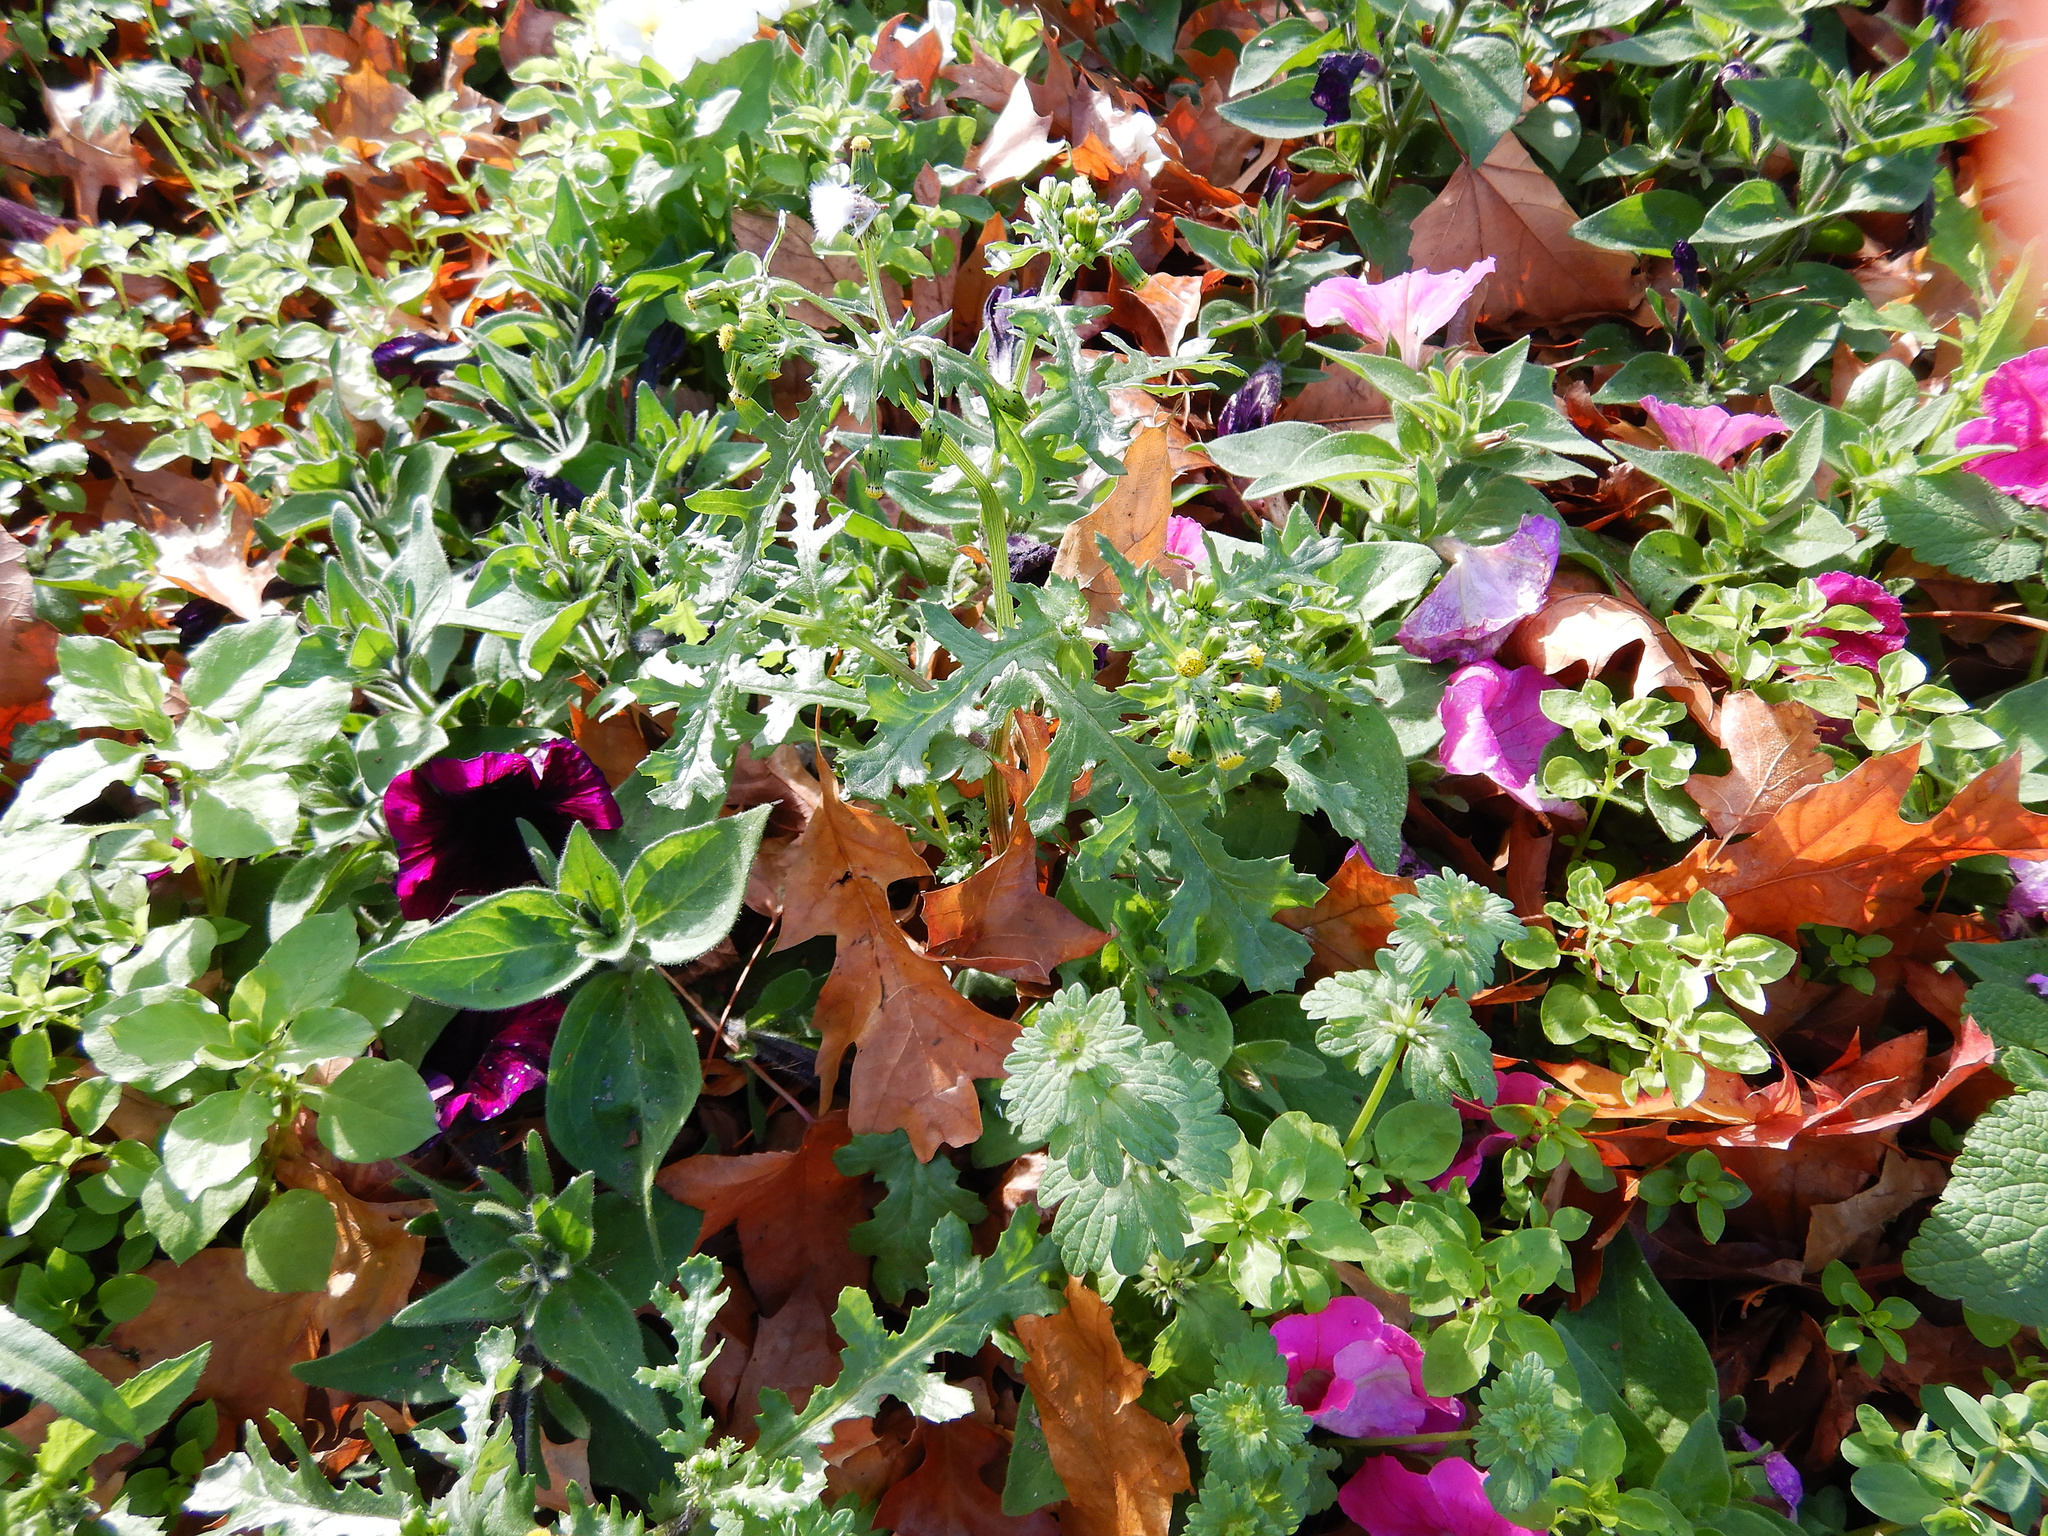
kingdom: Plantae
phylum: Tracheophyta
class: Magnoliopsida
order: Asterales
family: Asteraceae
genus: Senecio
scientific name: Senecio vulgaris
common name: Old-man-in-the-spring
